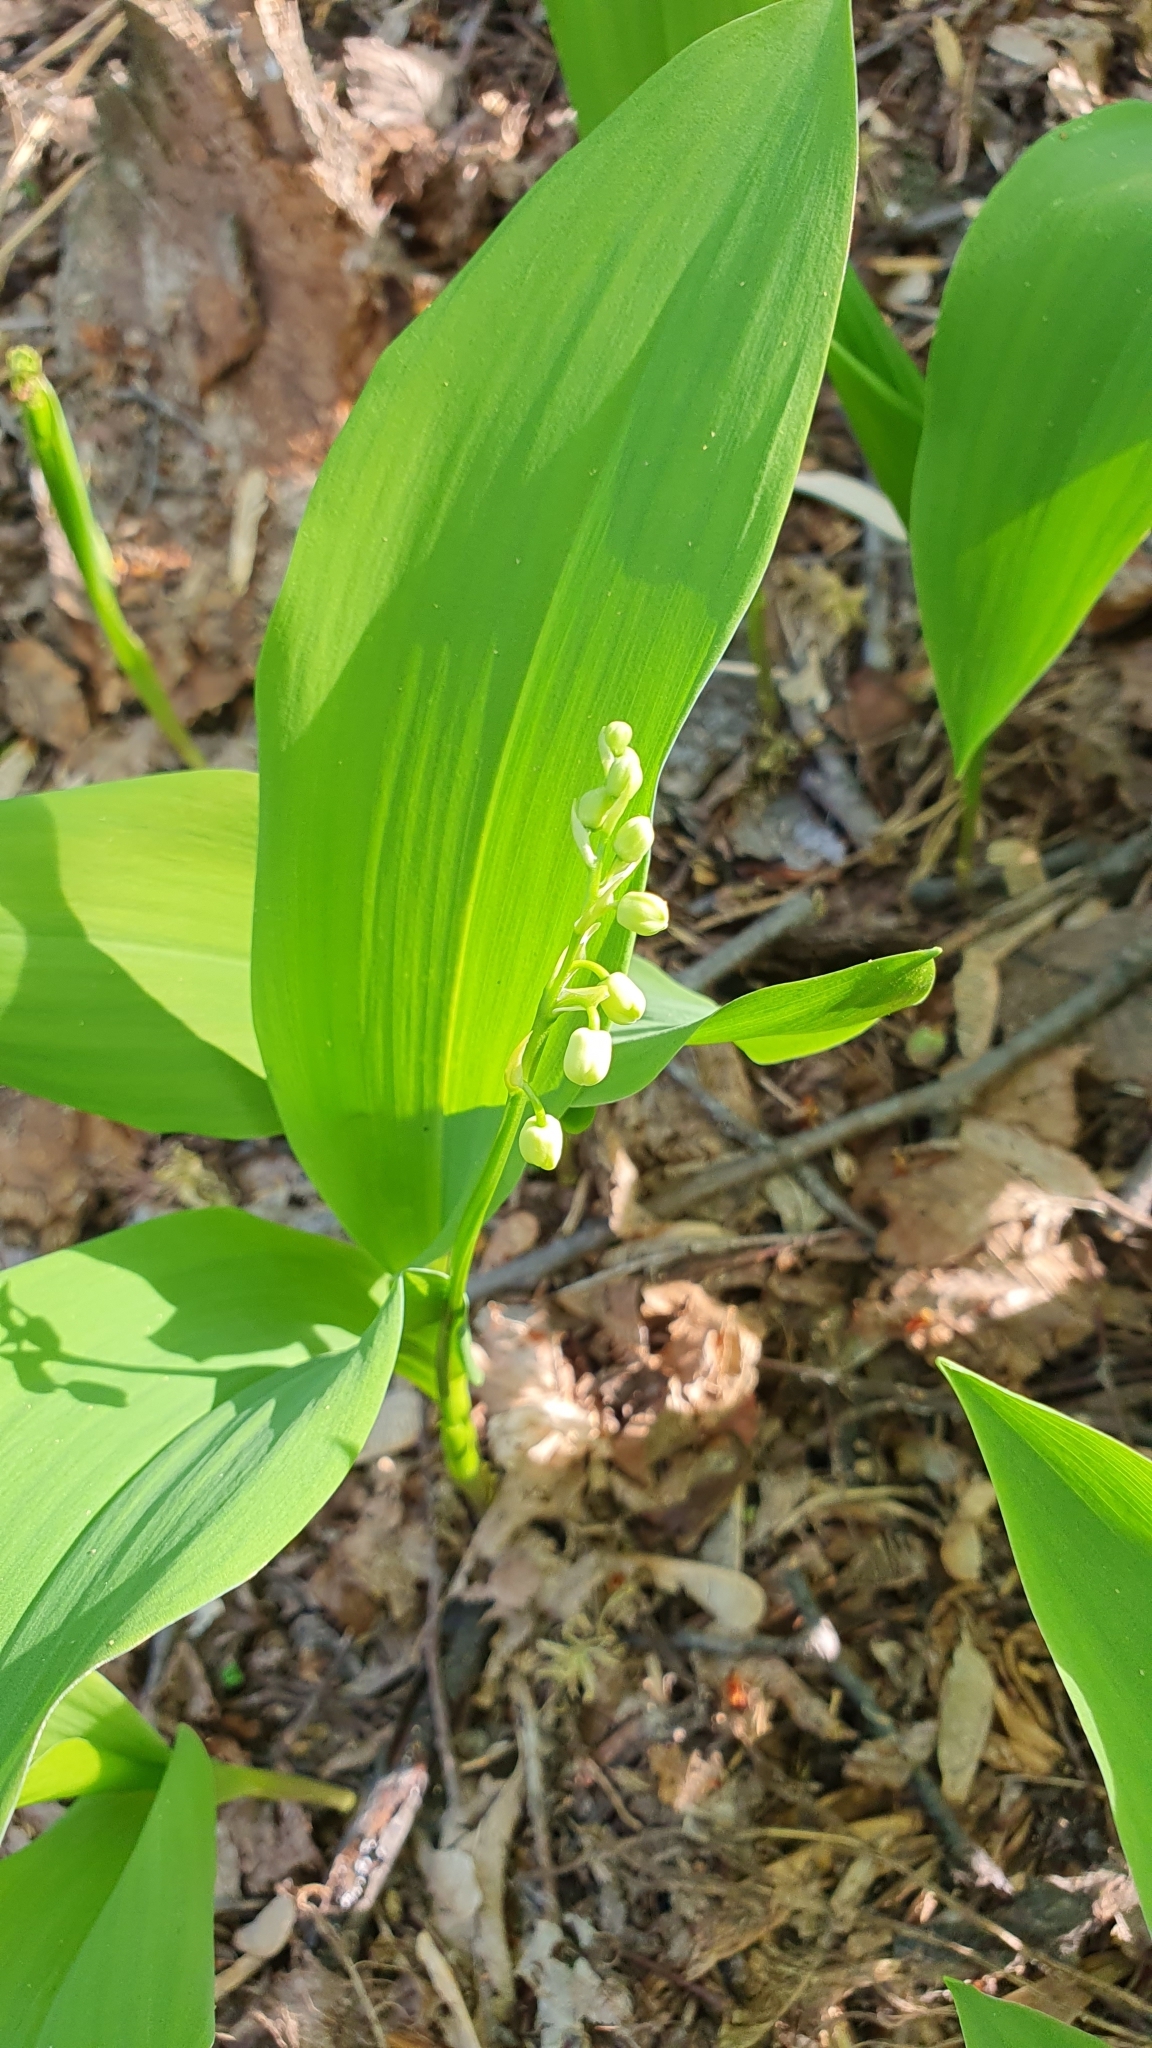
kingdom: Plantae
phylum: Tracheophyta
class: Liliopsida
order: Asparagales
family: Asparagaceae
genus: Convallaria
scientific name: Convallaria majalis
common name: Lily-of-the-valley
